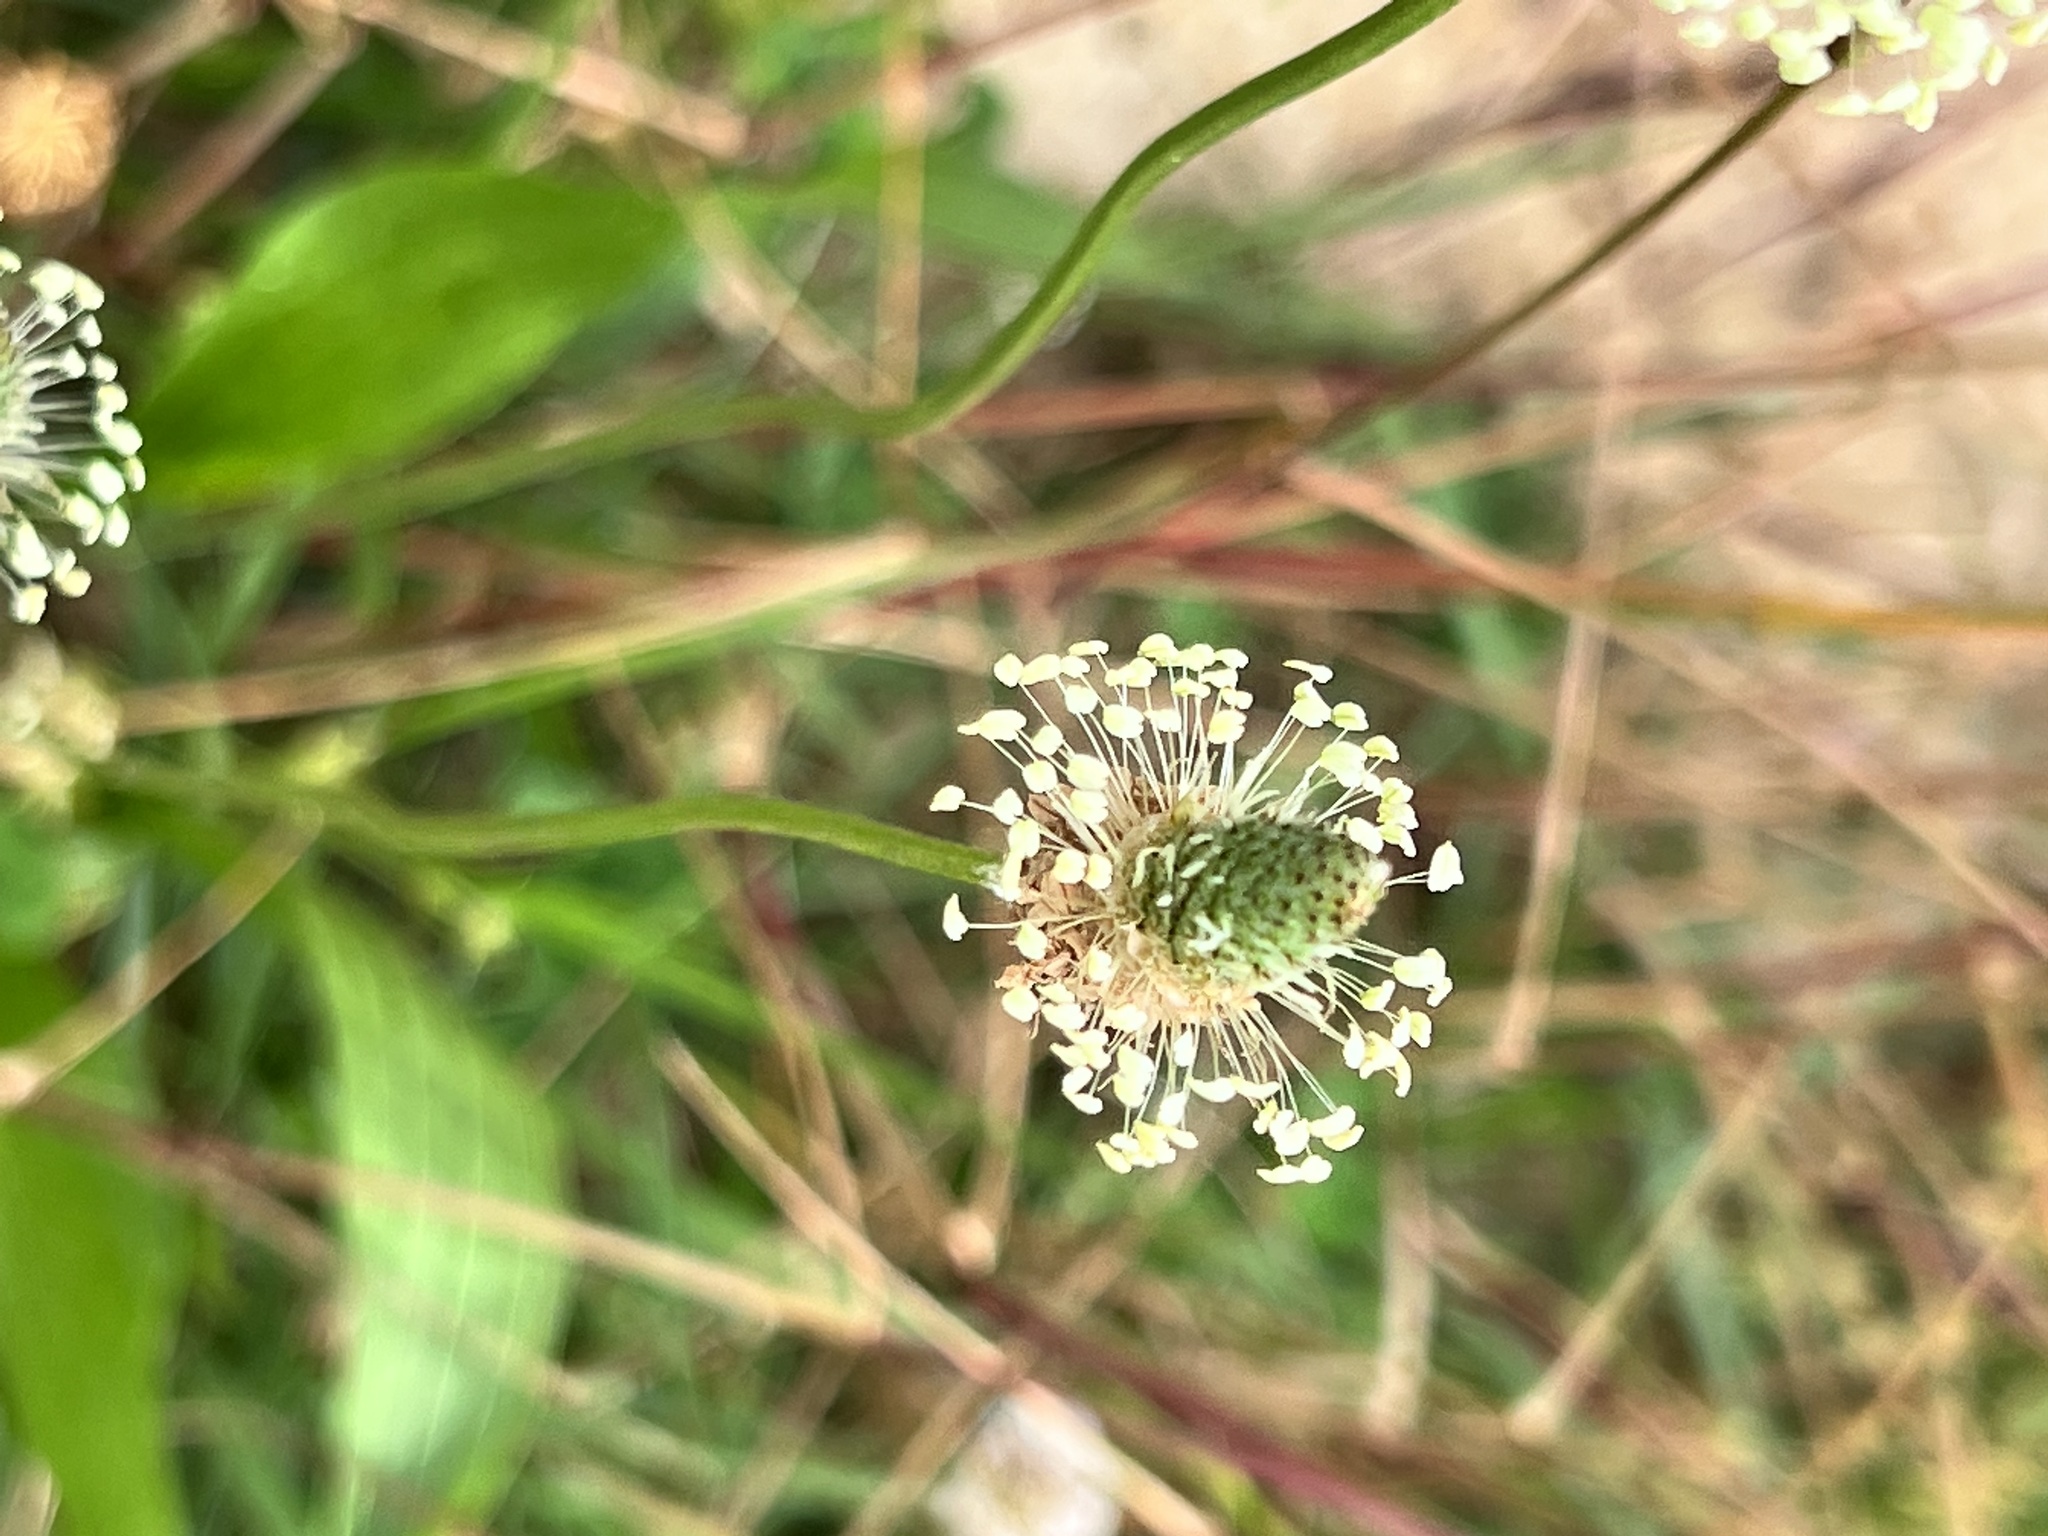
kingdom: Plantae
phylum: Tracheophyta
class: Magnoliopsida
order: Lamiales
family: Plantaginaceae
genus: Plantago
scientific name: Plantago lanceolata
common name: Ribwort plantain
